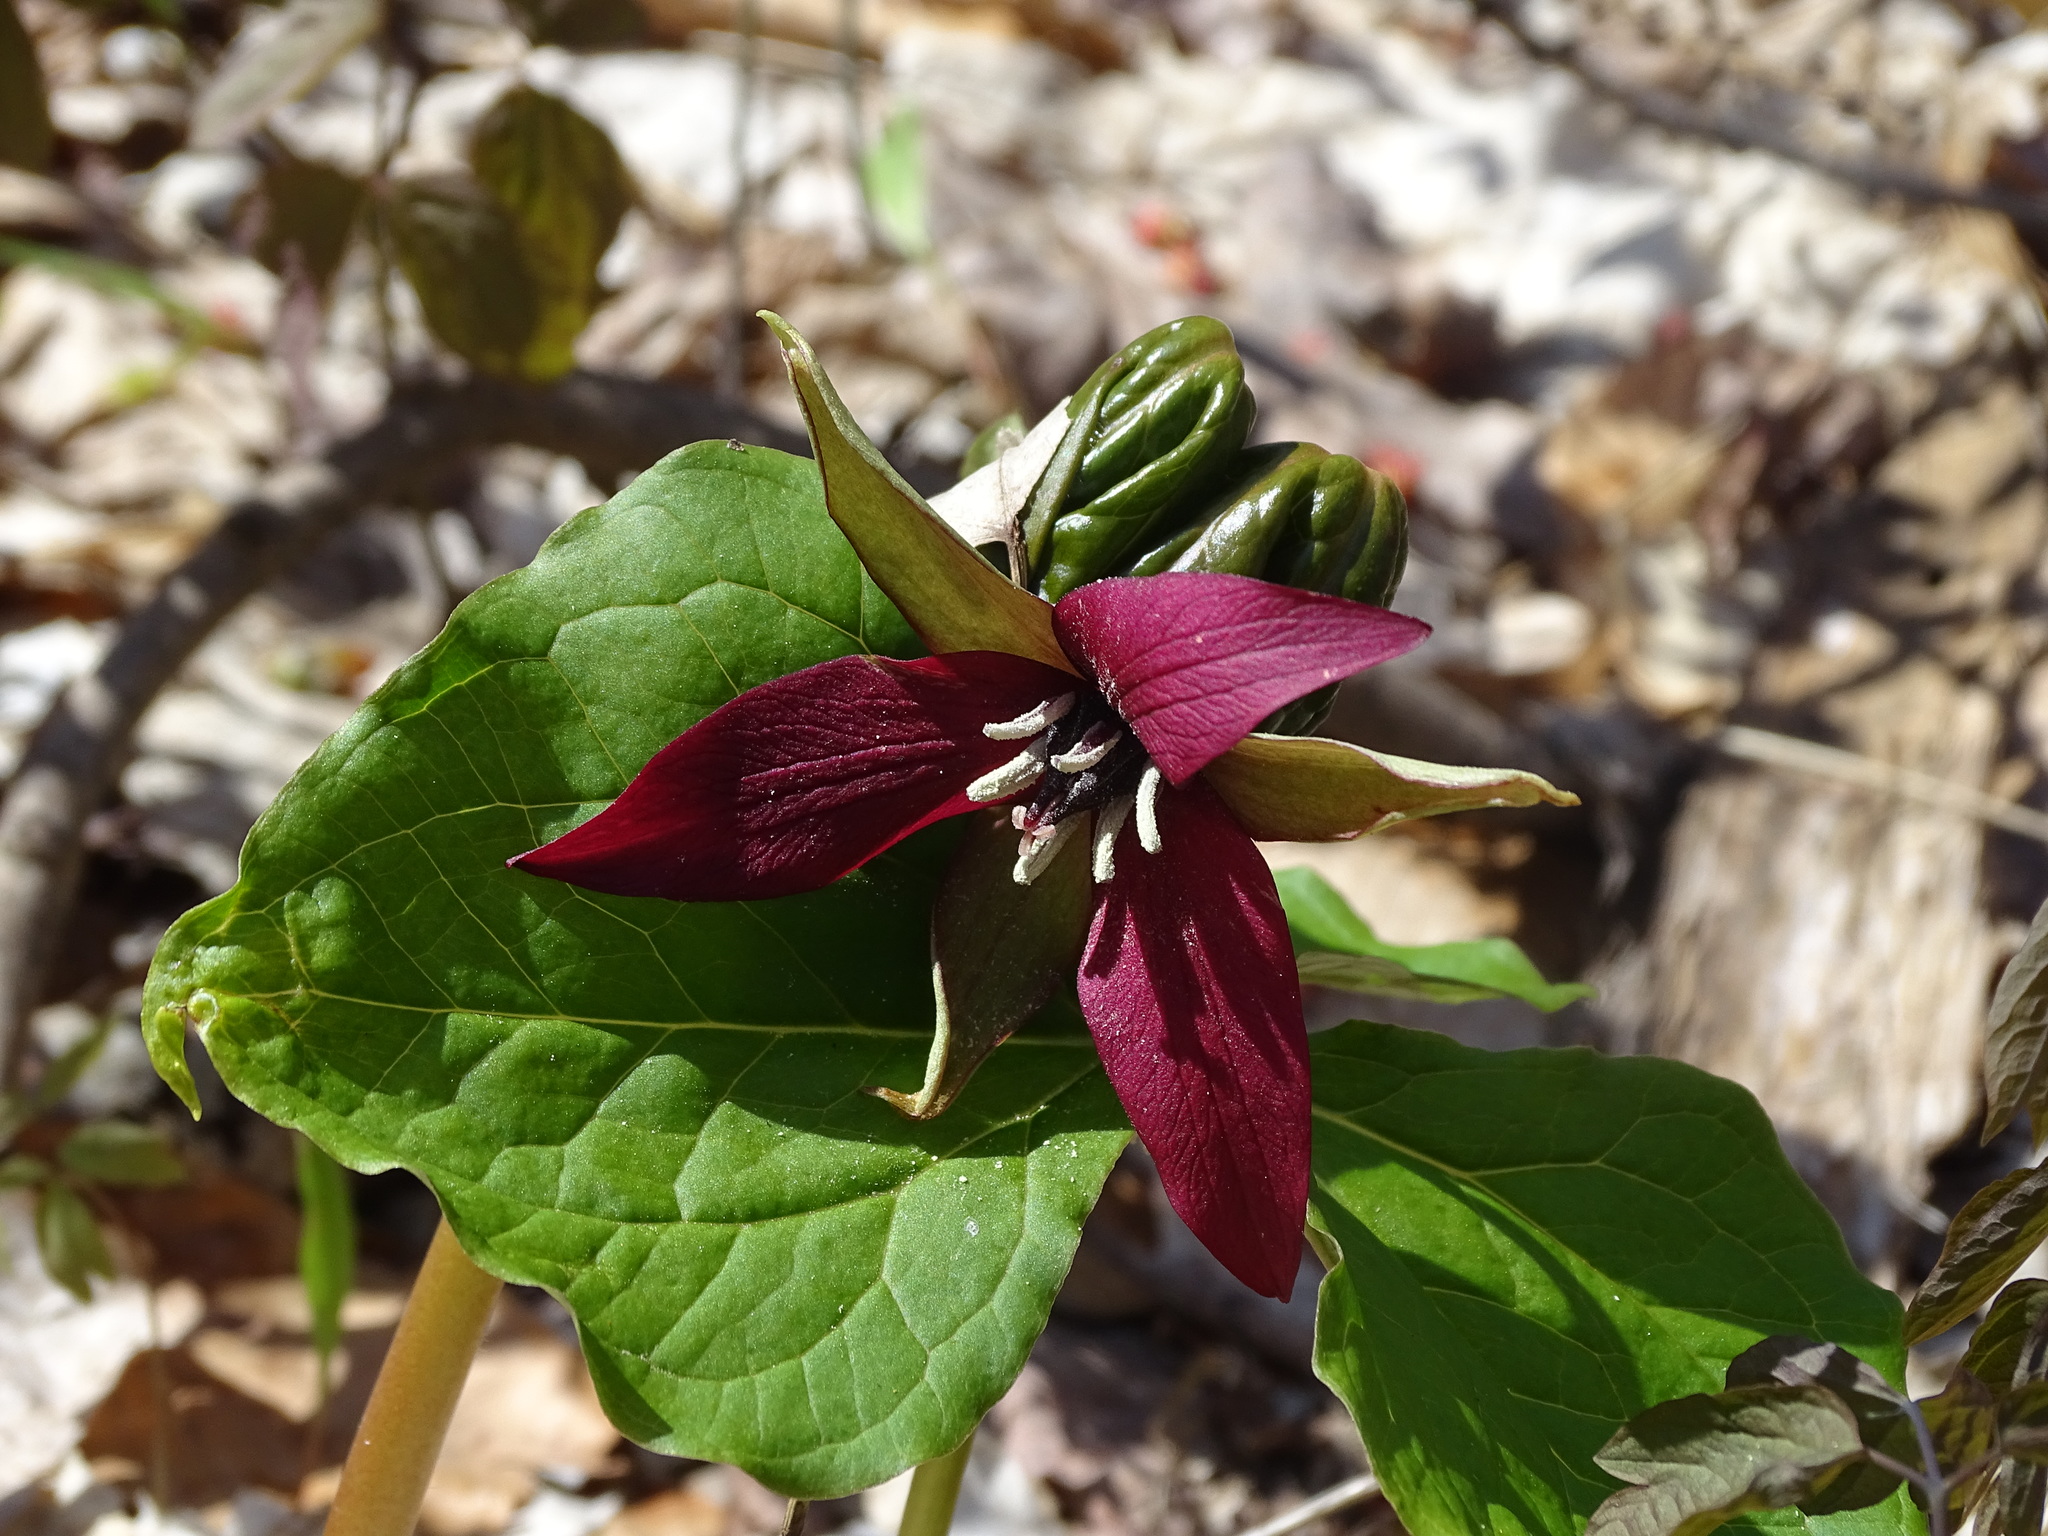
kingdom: Plantae
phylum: Tracheophyta
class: Liliopsida
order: Liliales
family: Melanthiaceae
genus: Trillium
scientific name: Trillium erectum
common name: Purple trillium
